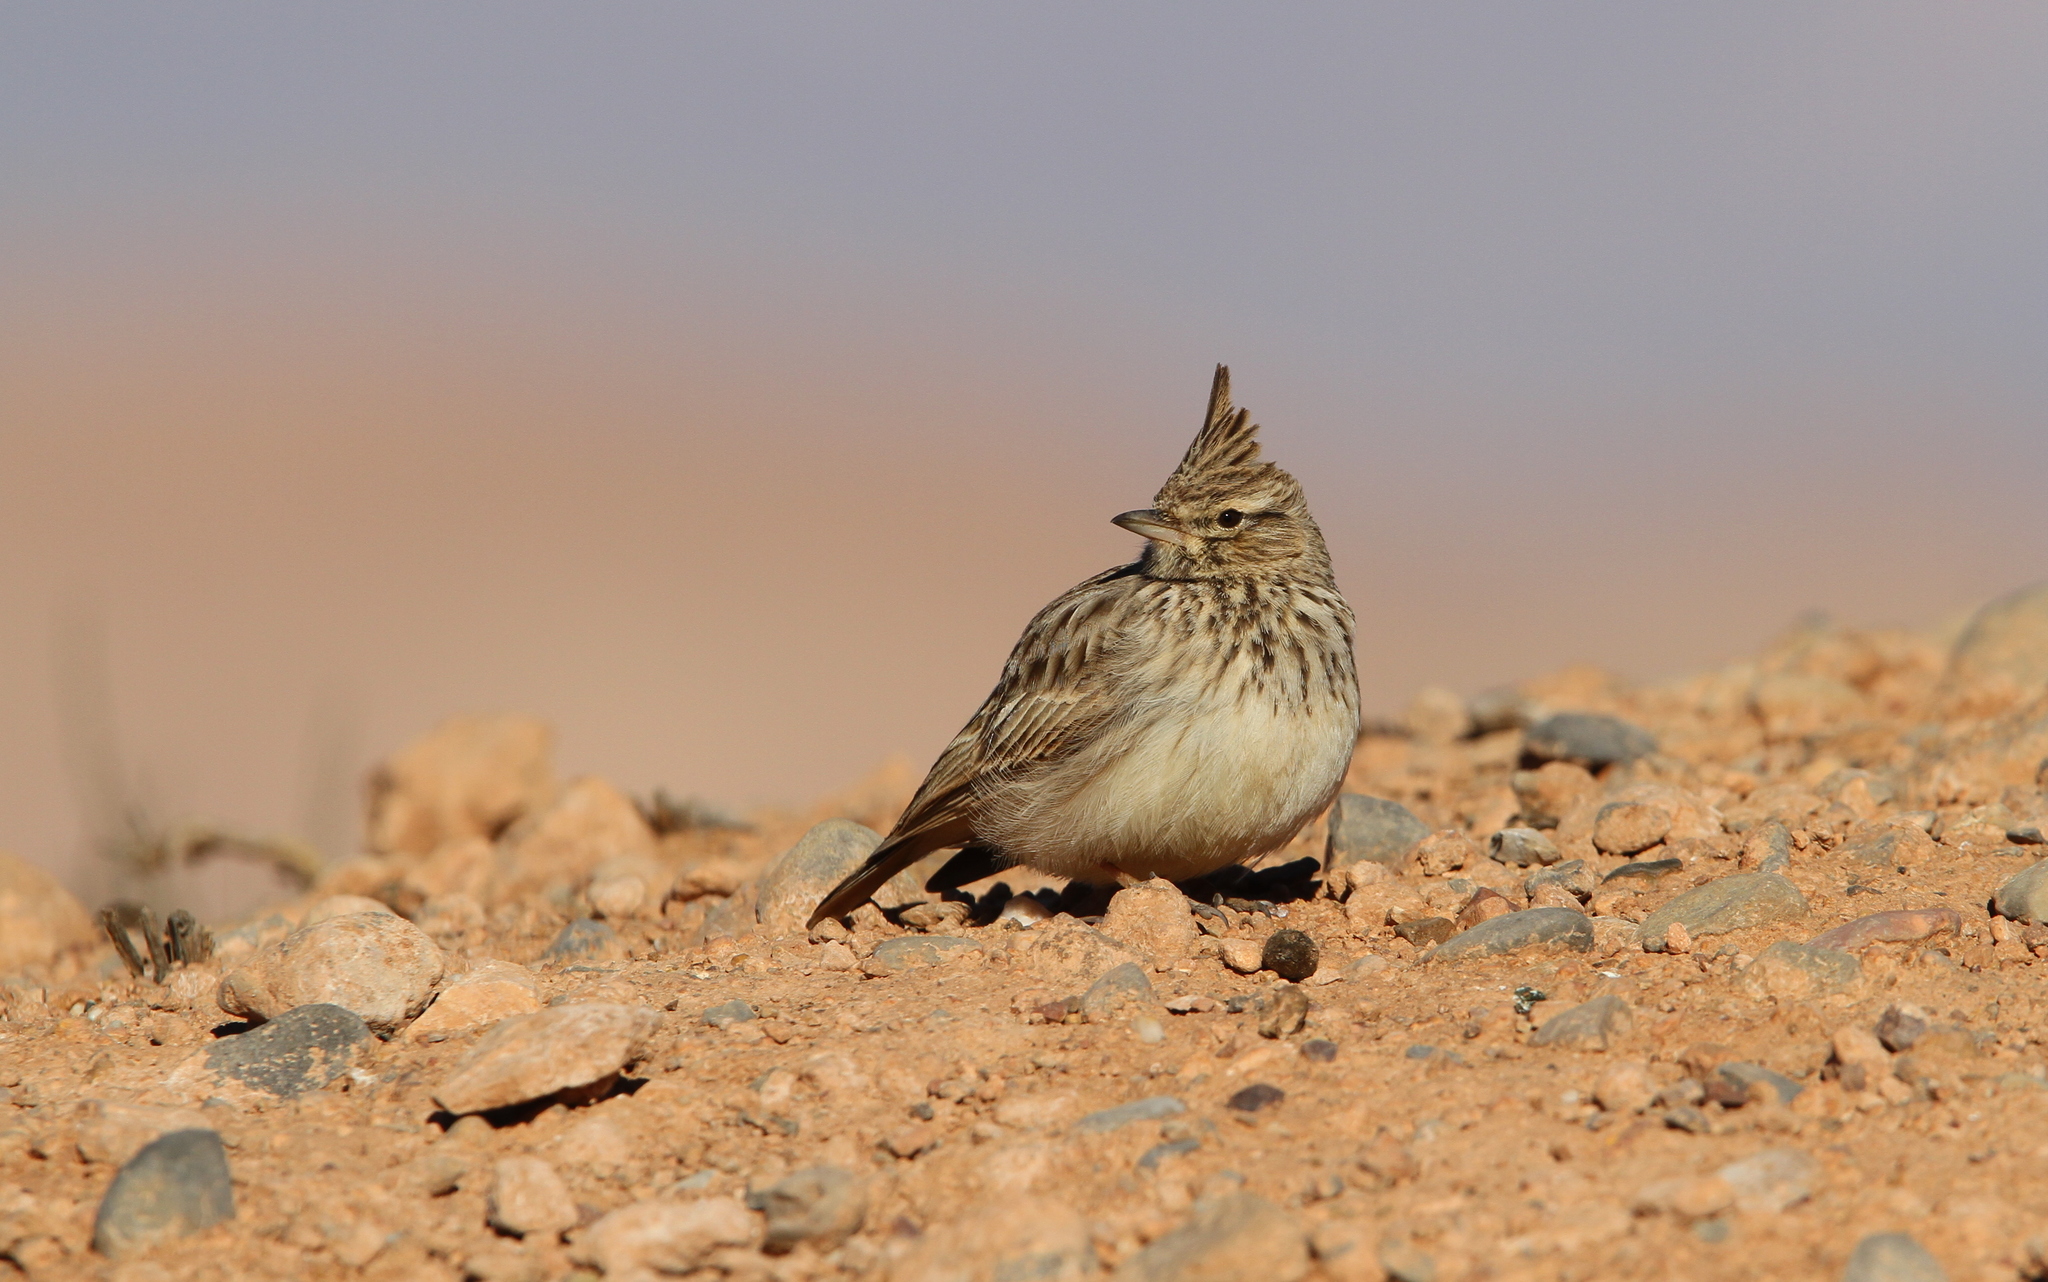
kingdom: Animalia
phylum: Chordata
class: Aves
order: Passeriformes
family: Alaudidae
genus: Galerida
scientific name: Galerida theklae
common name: Thekla lark
